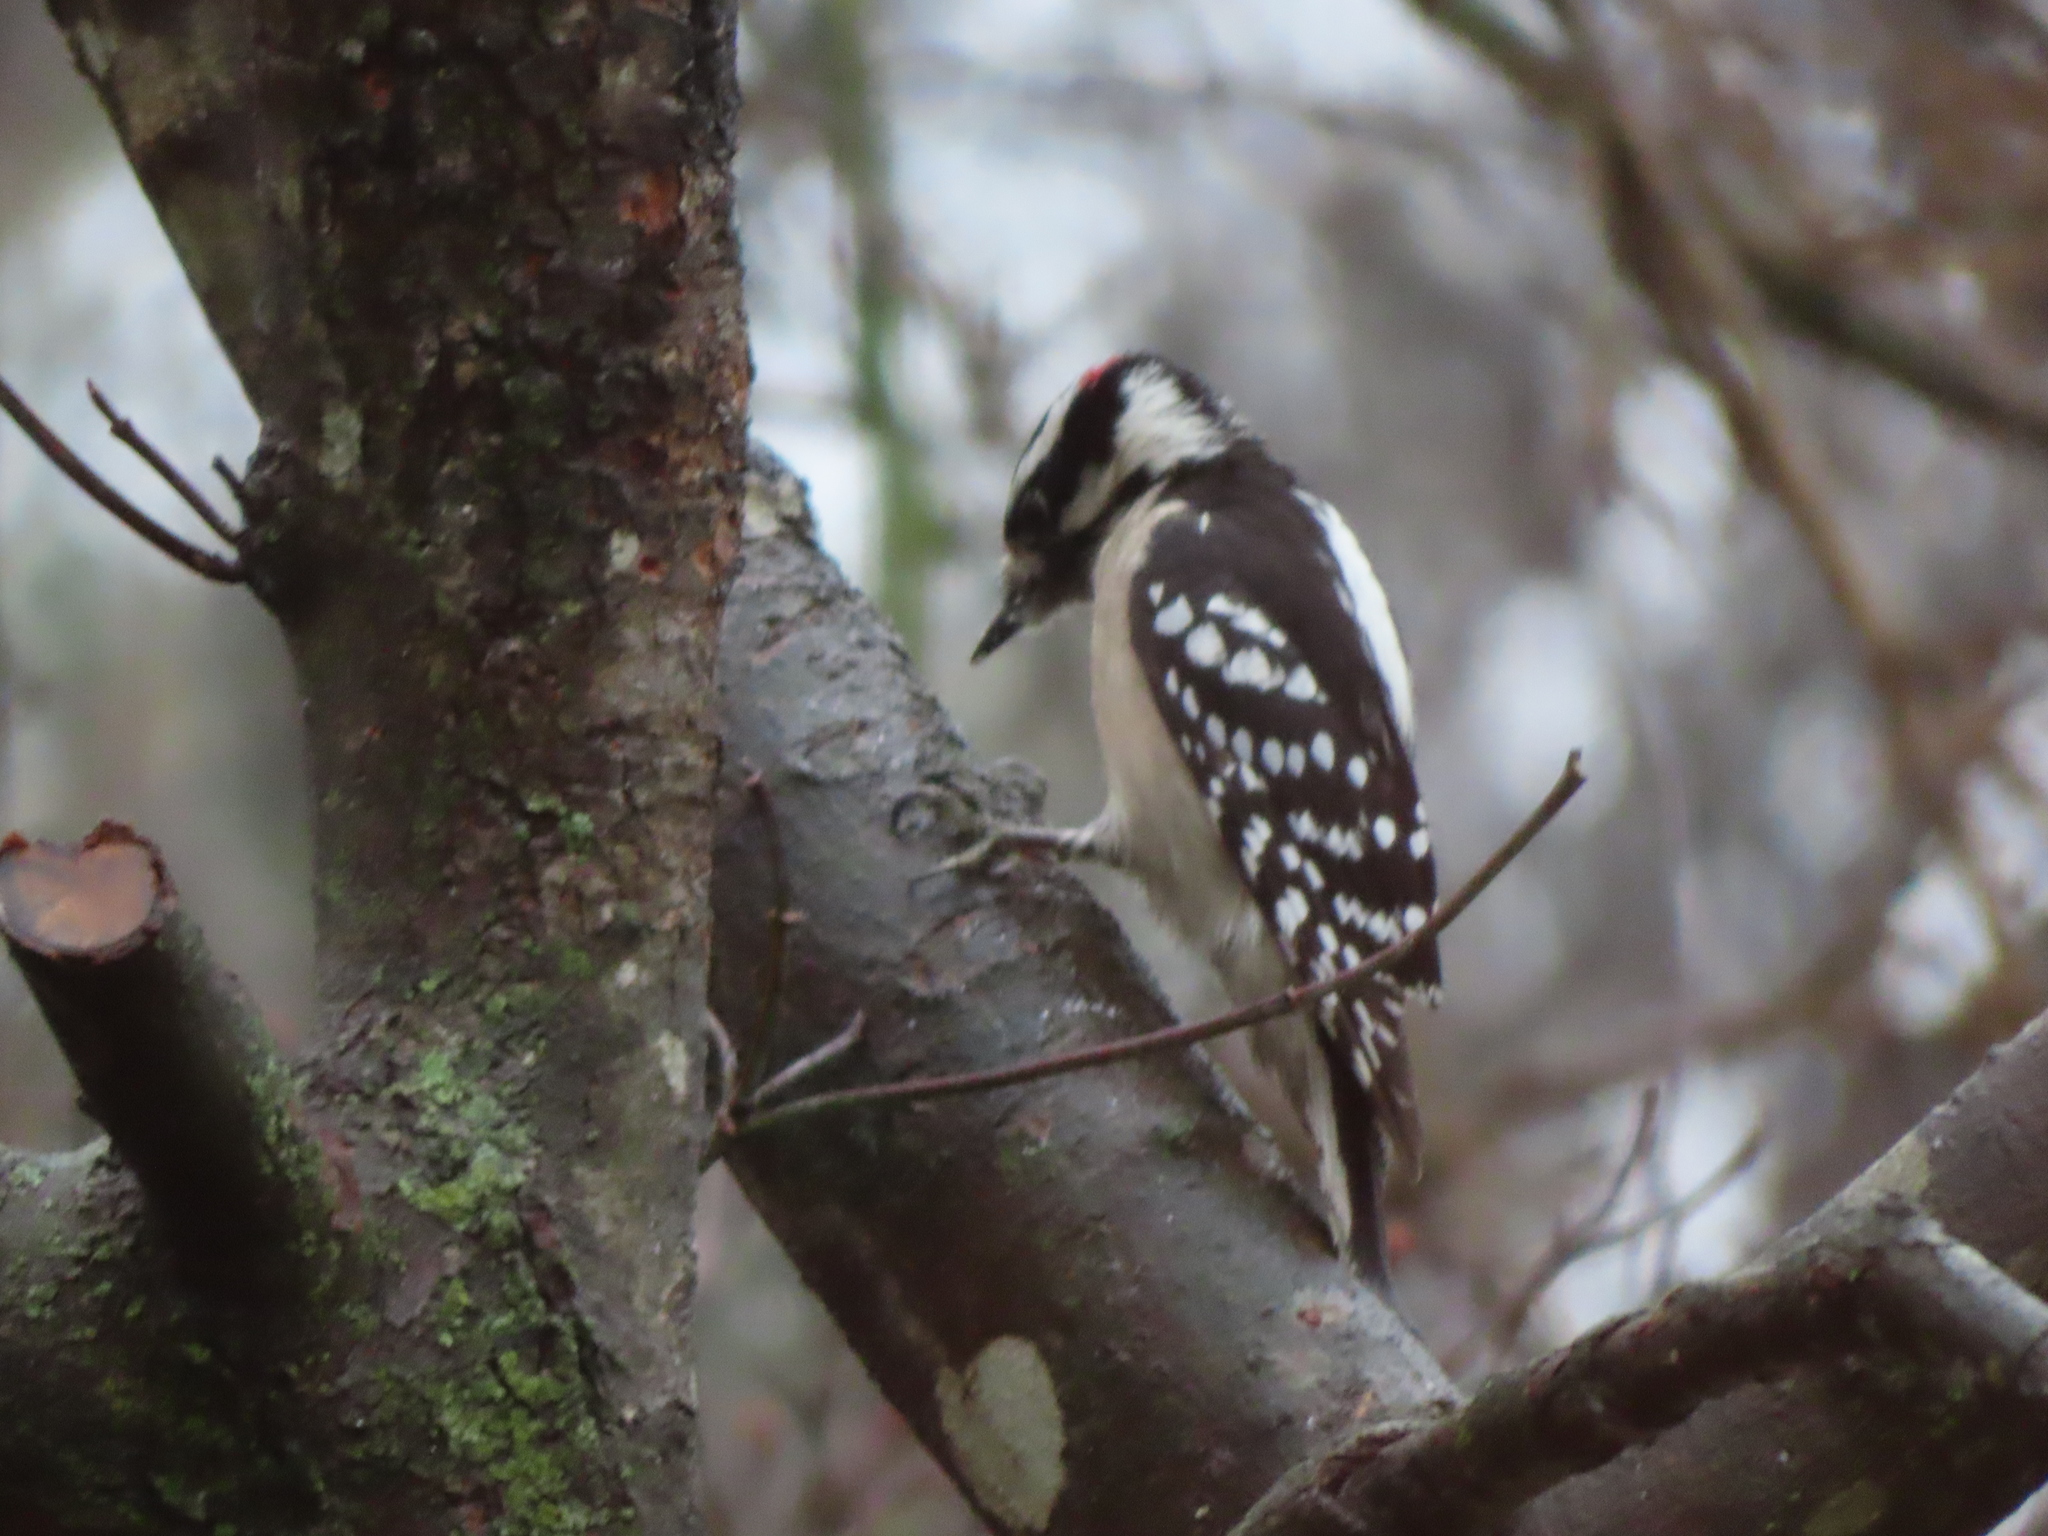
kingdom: Animalia
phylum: Chordata
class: Aves
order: Piciformes
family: Picidae
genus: Dryobates
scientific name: Dryobates pubescens
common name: Downy woodpecker
